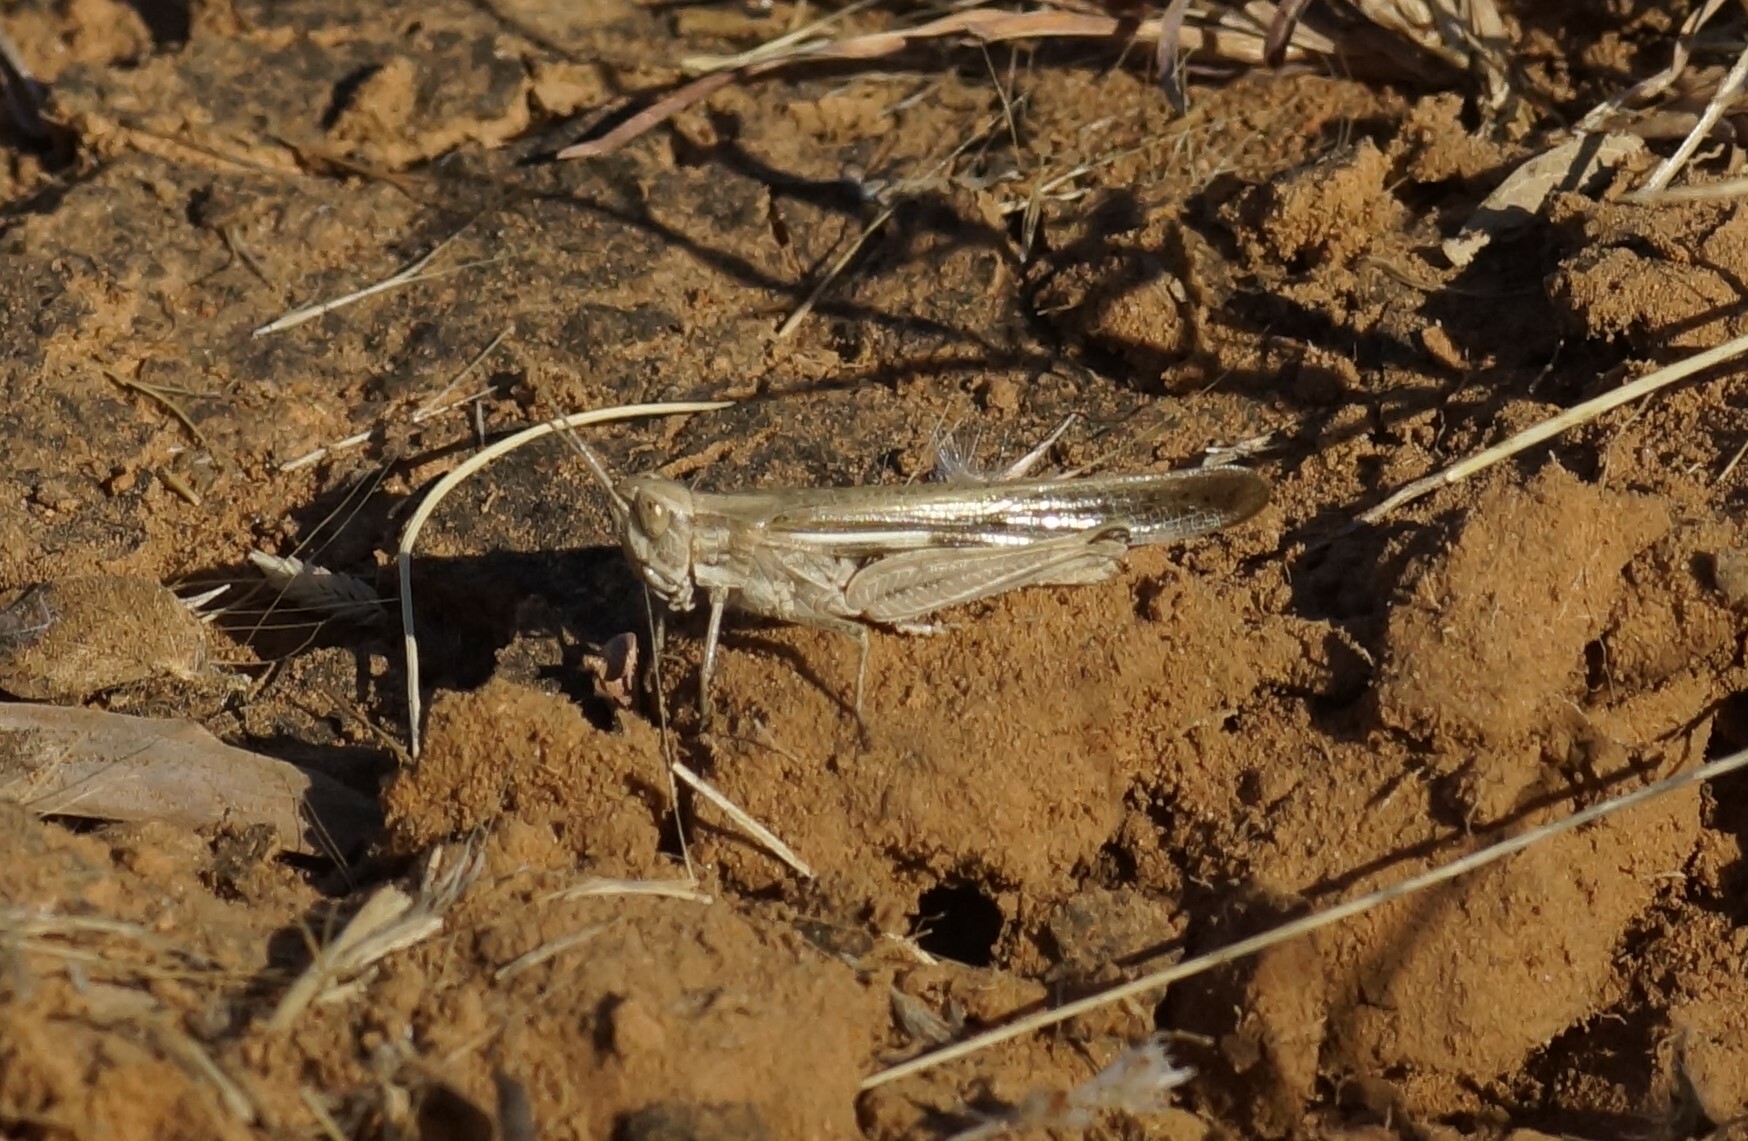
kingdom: Animalia
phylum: Arthropoda
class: Insecta
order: Orthoptera
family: Acrididae
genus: Aiolopus
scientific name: Aiolopus thalassinus
